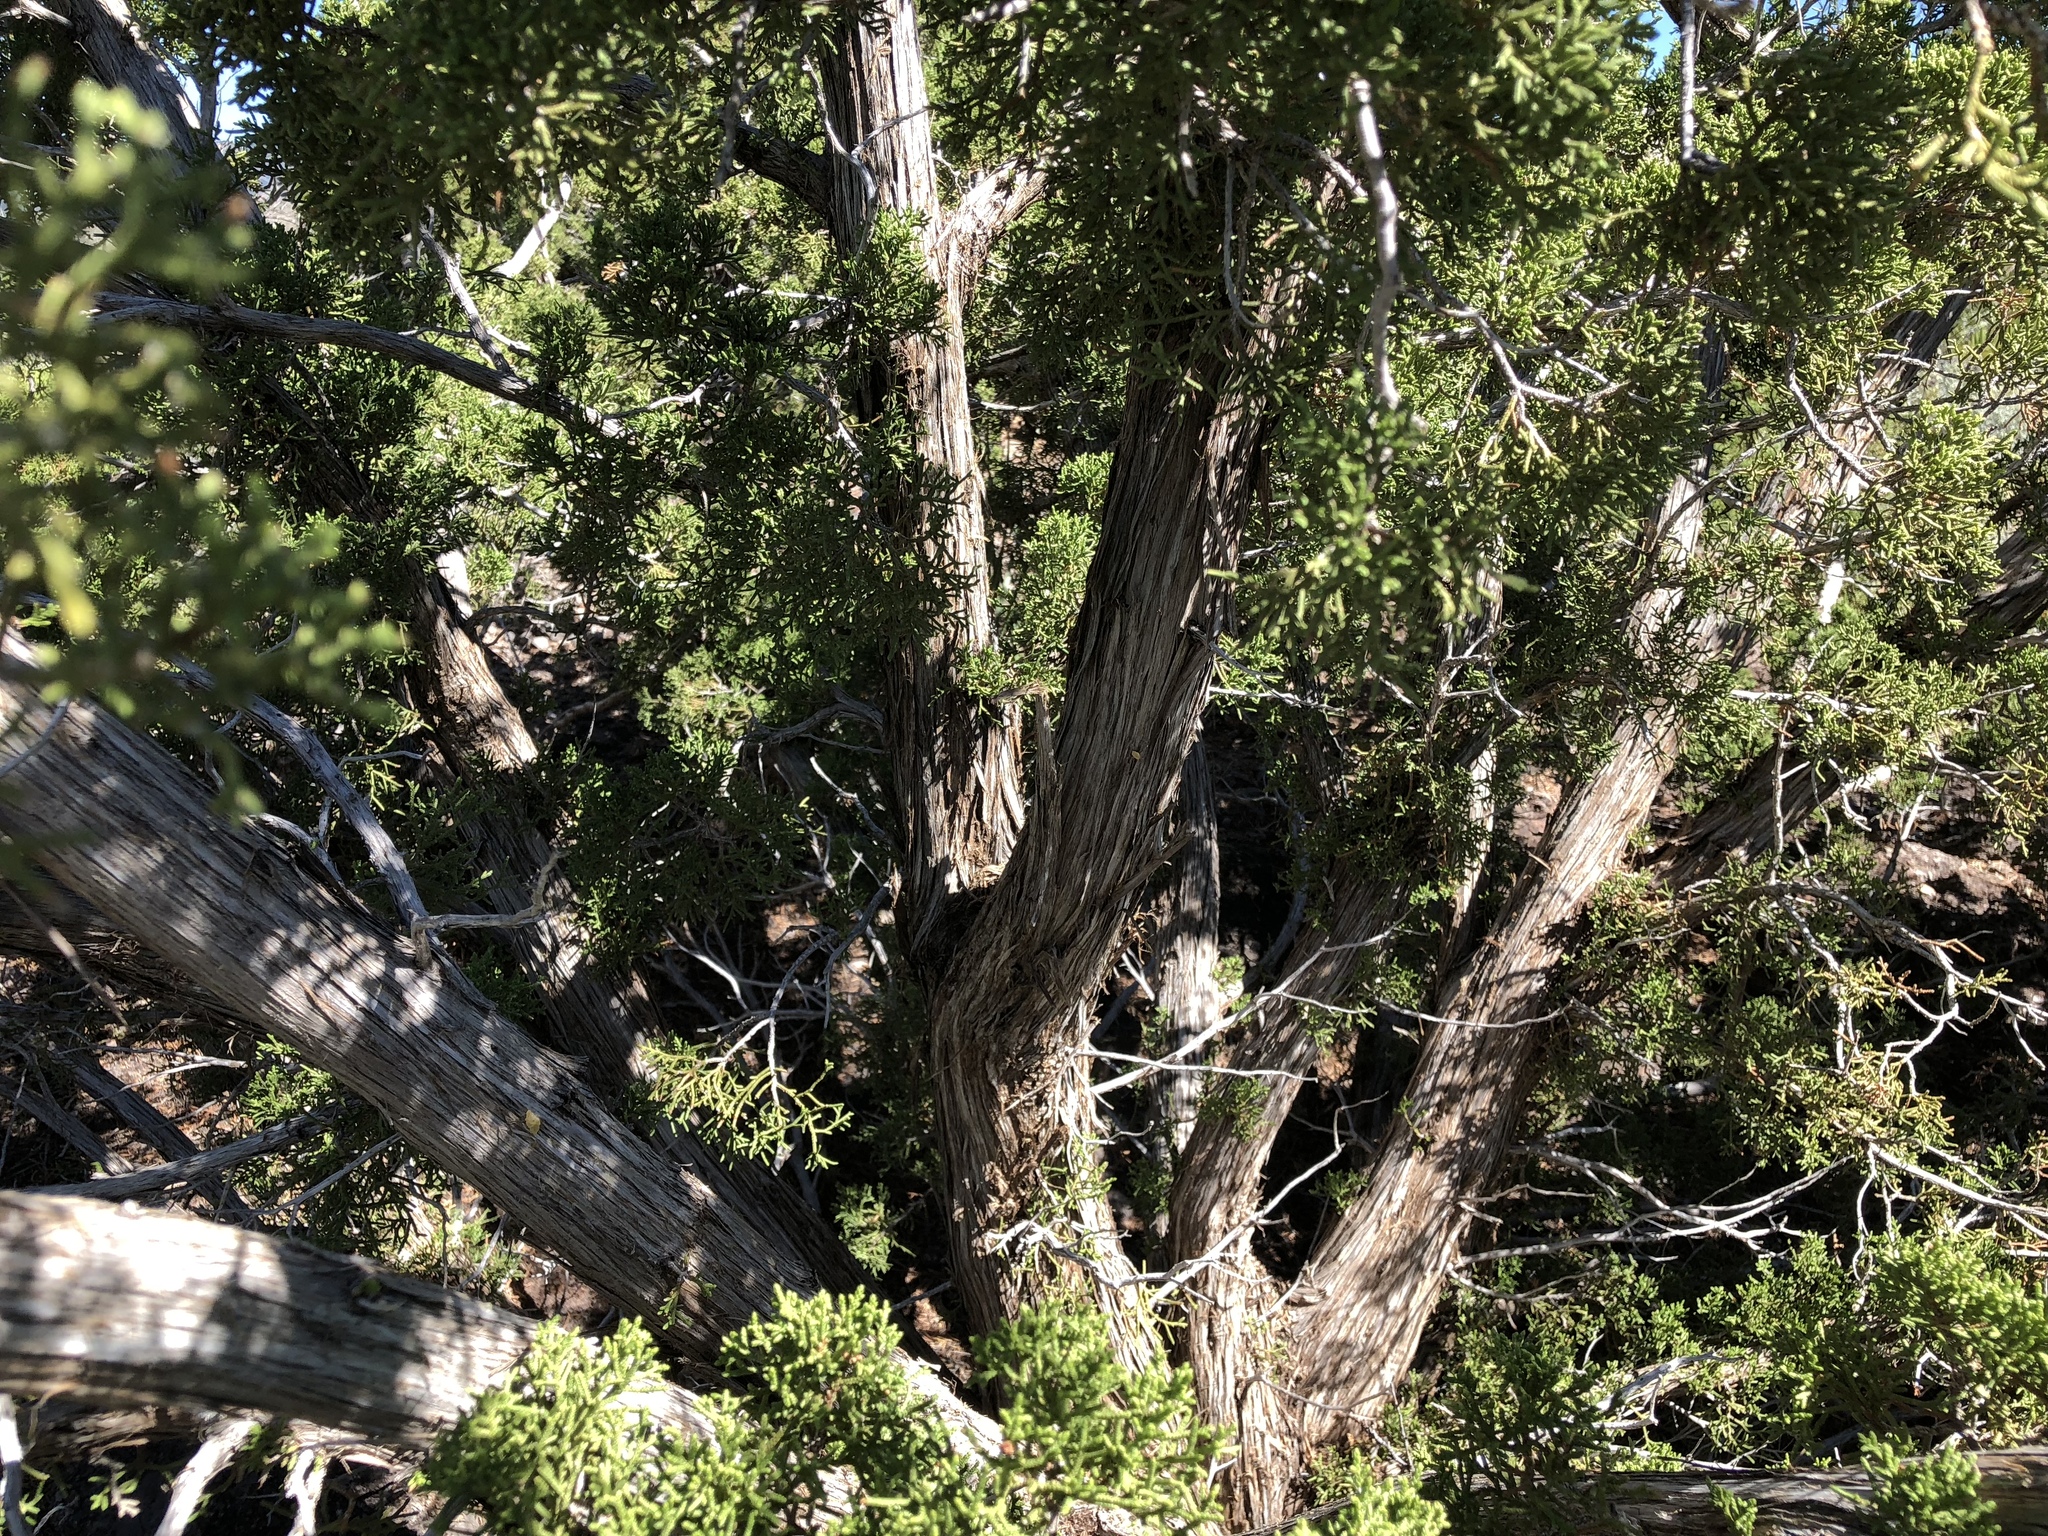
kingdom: Plantae
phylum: Tracheophyta
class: Pinopsida
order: Pinales
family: Cupressaceae
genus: Juniperus
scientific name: Juniperus monosperma
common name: One-seed juniper
